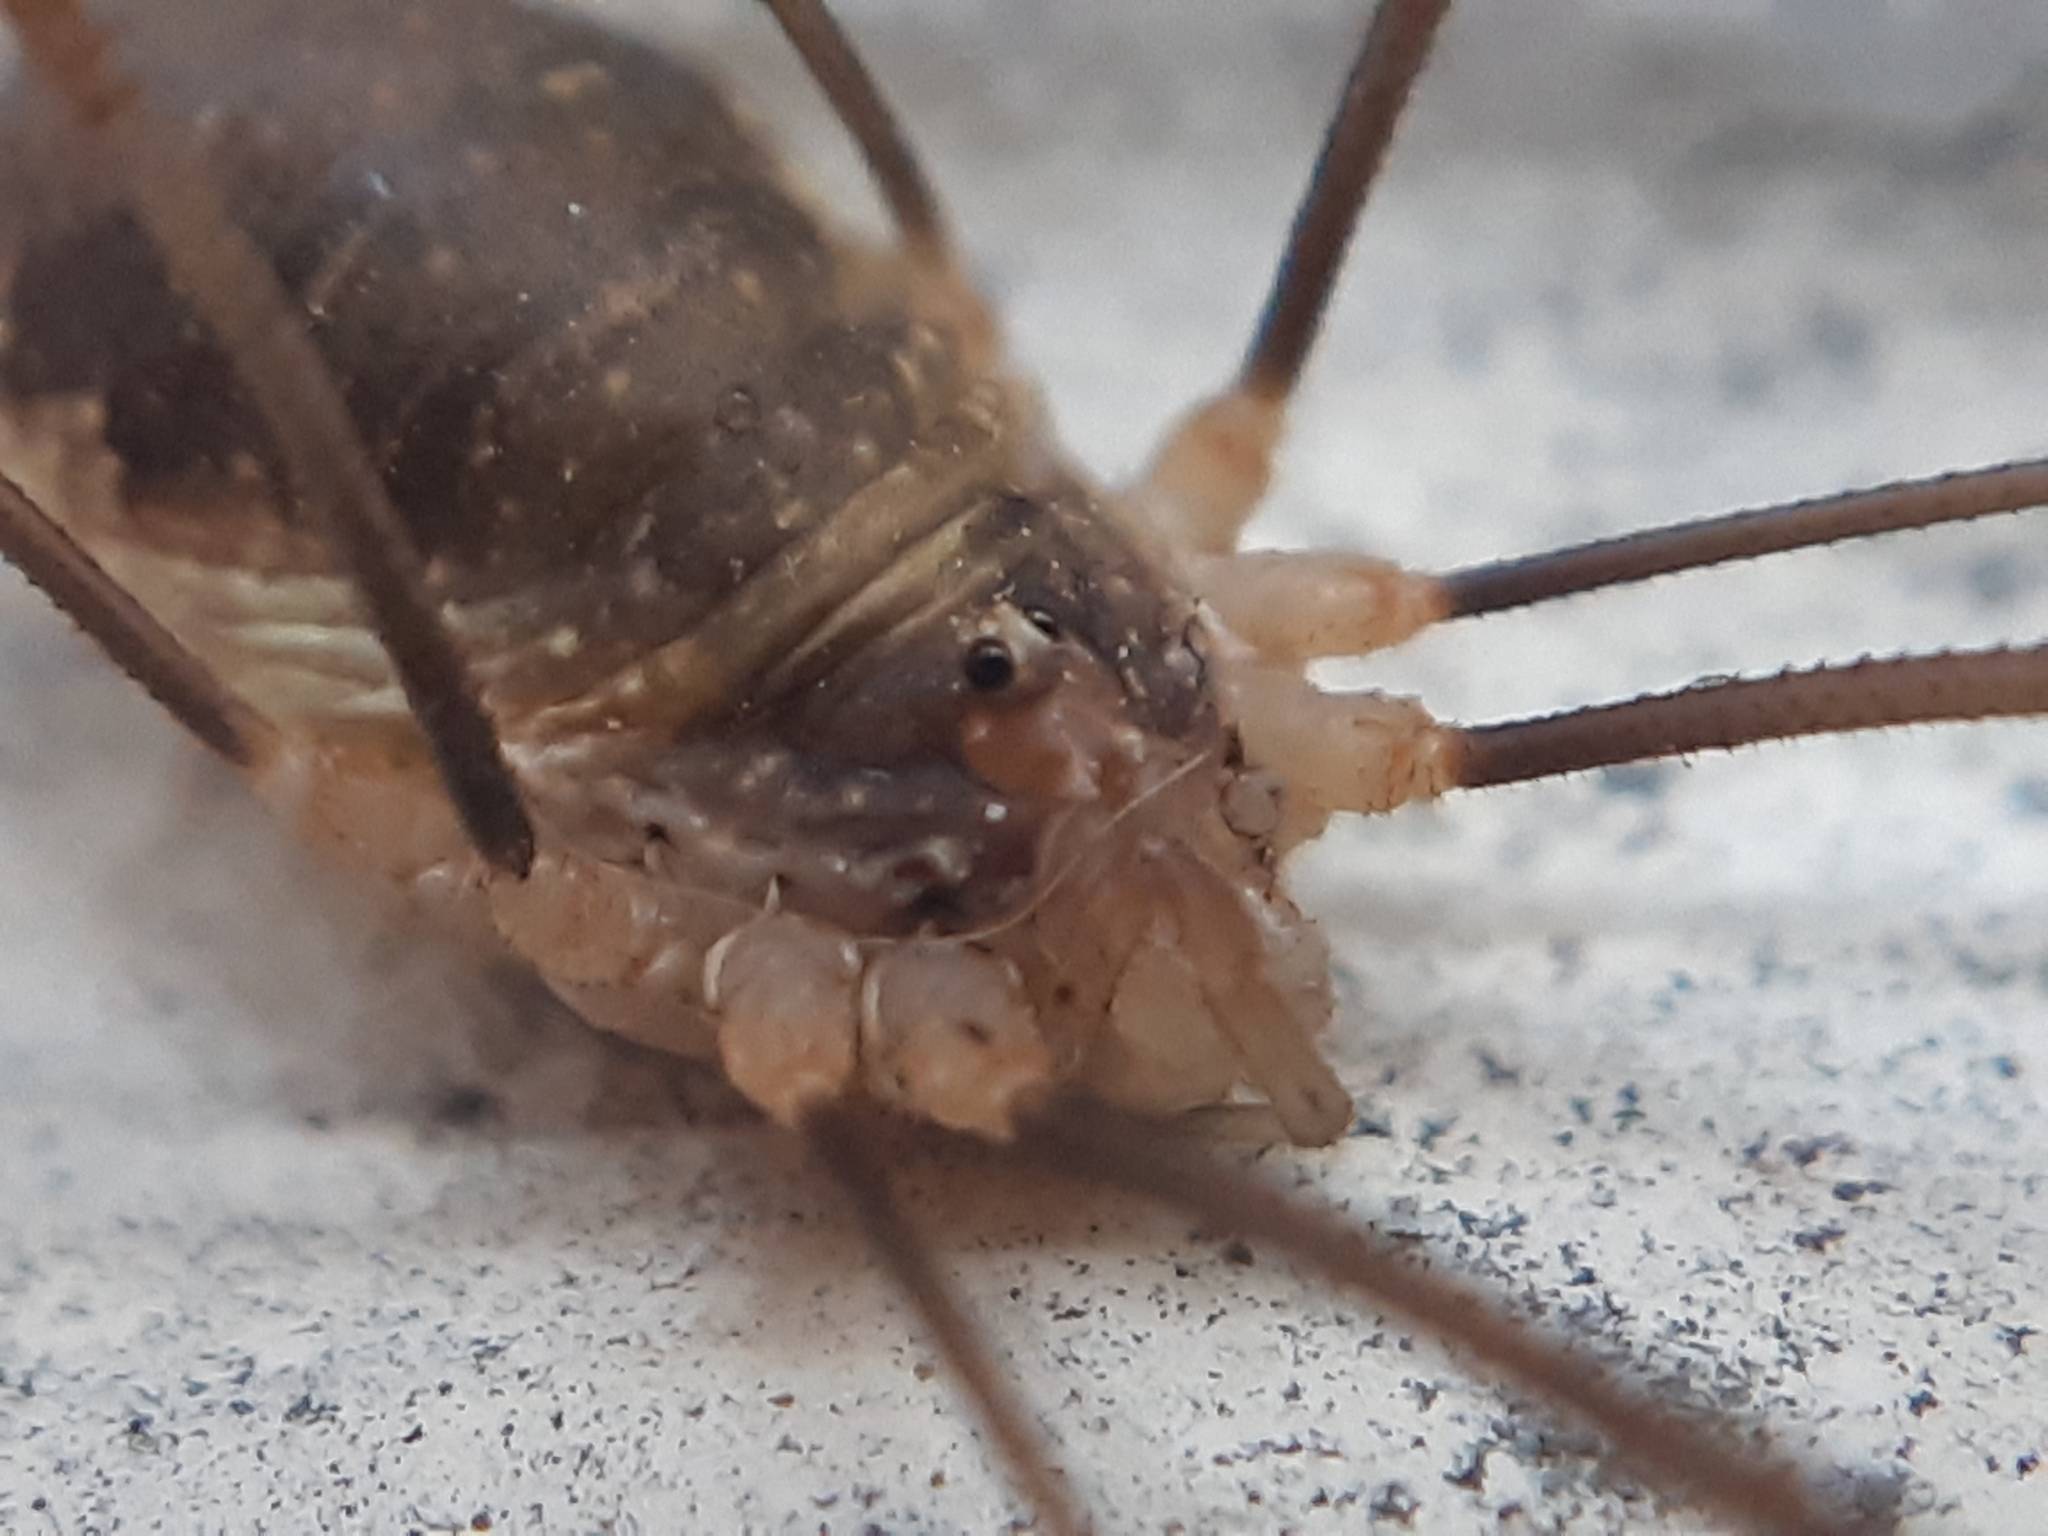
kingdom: Animalia
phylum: Arthropoda
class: Arachnida
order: Opiliones
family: Phalangiidae
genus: Opilio
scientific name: Opilio canestrinii
